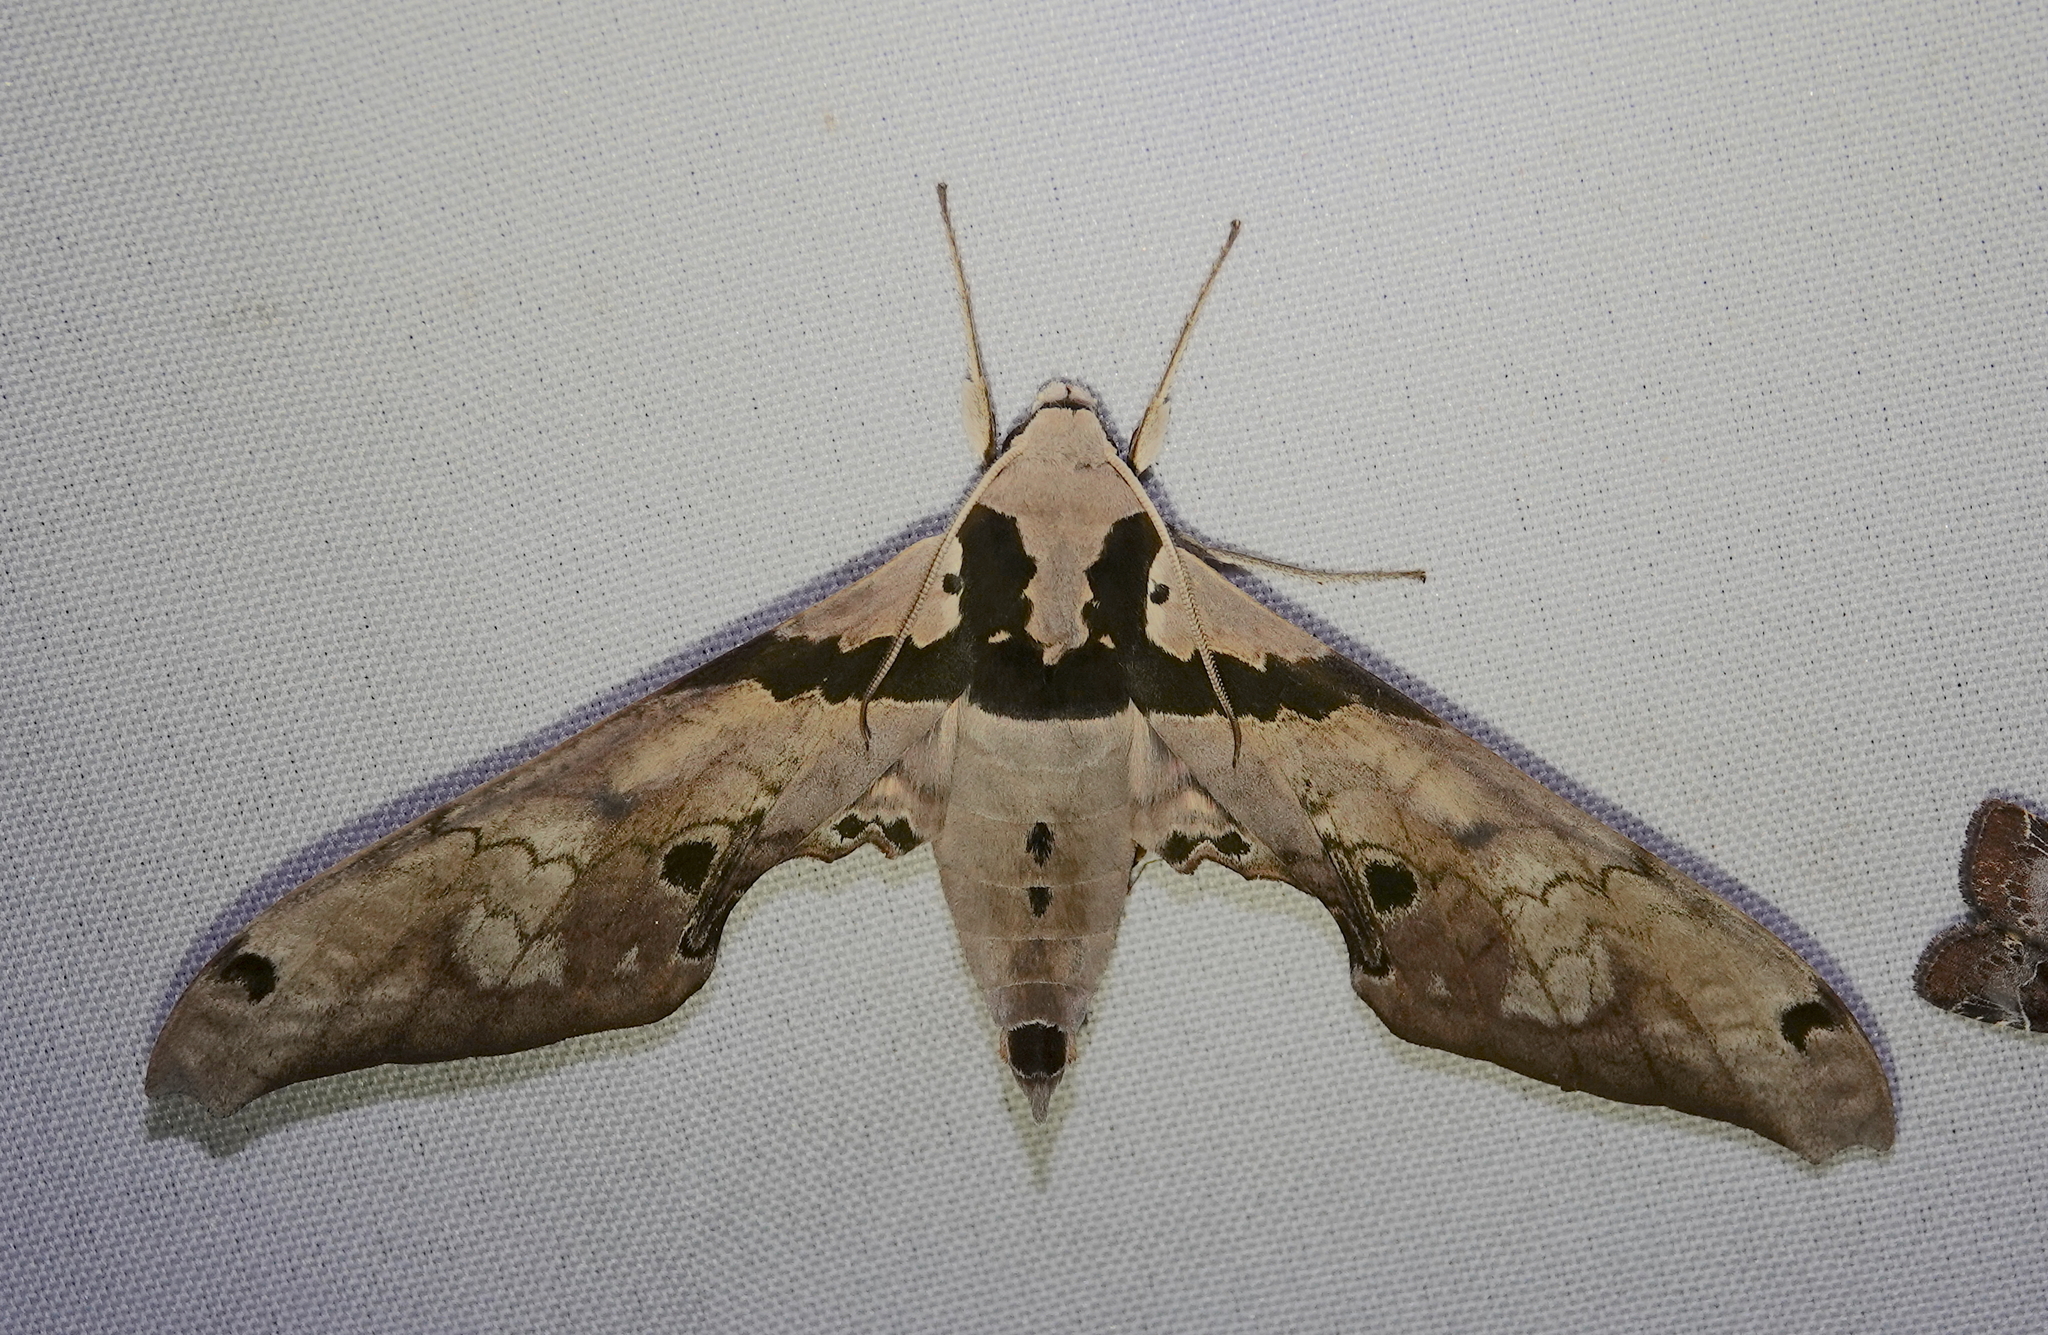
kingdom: Animalia
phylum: Arthropoda
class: Insecta
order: Lepidoptera
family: Sphingidae
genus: Adhemarius
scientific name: Adhemarius gannascus
